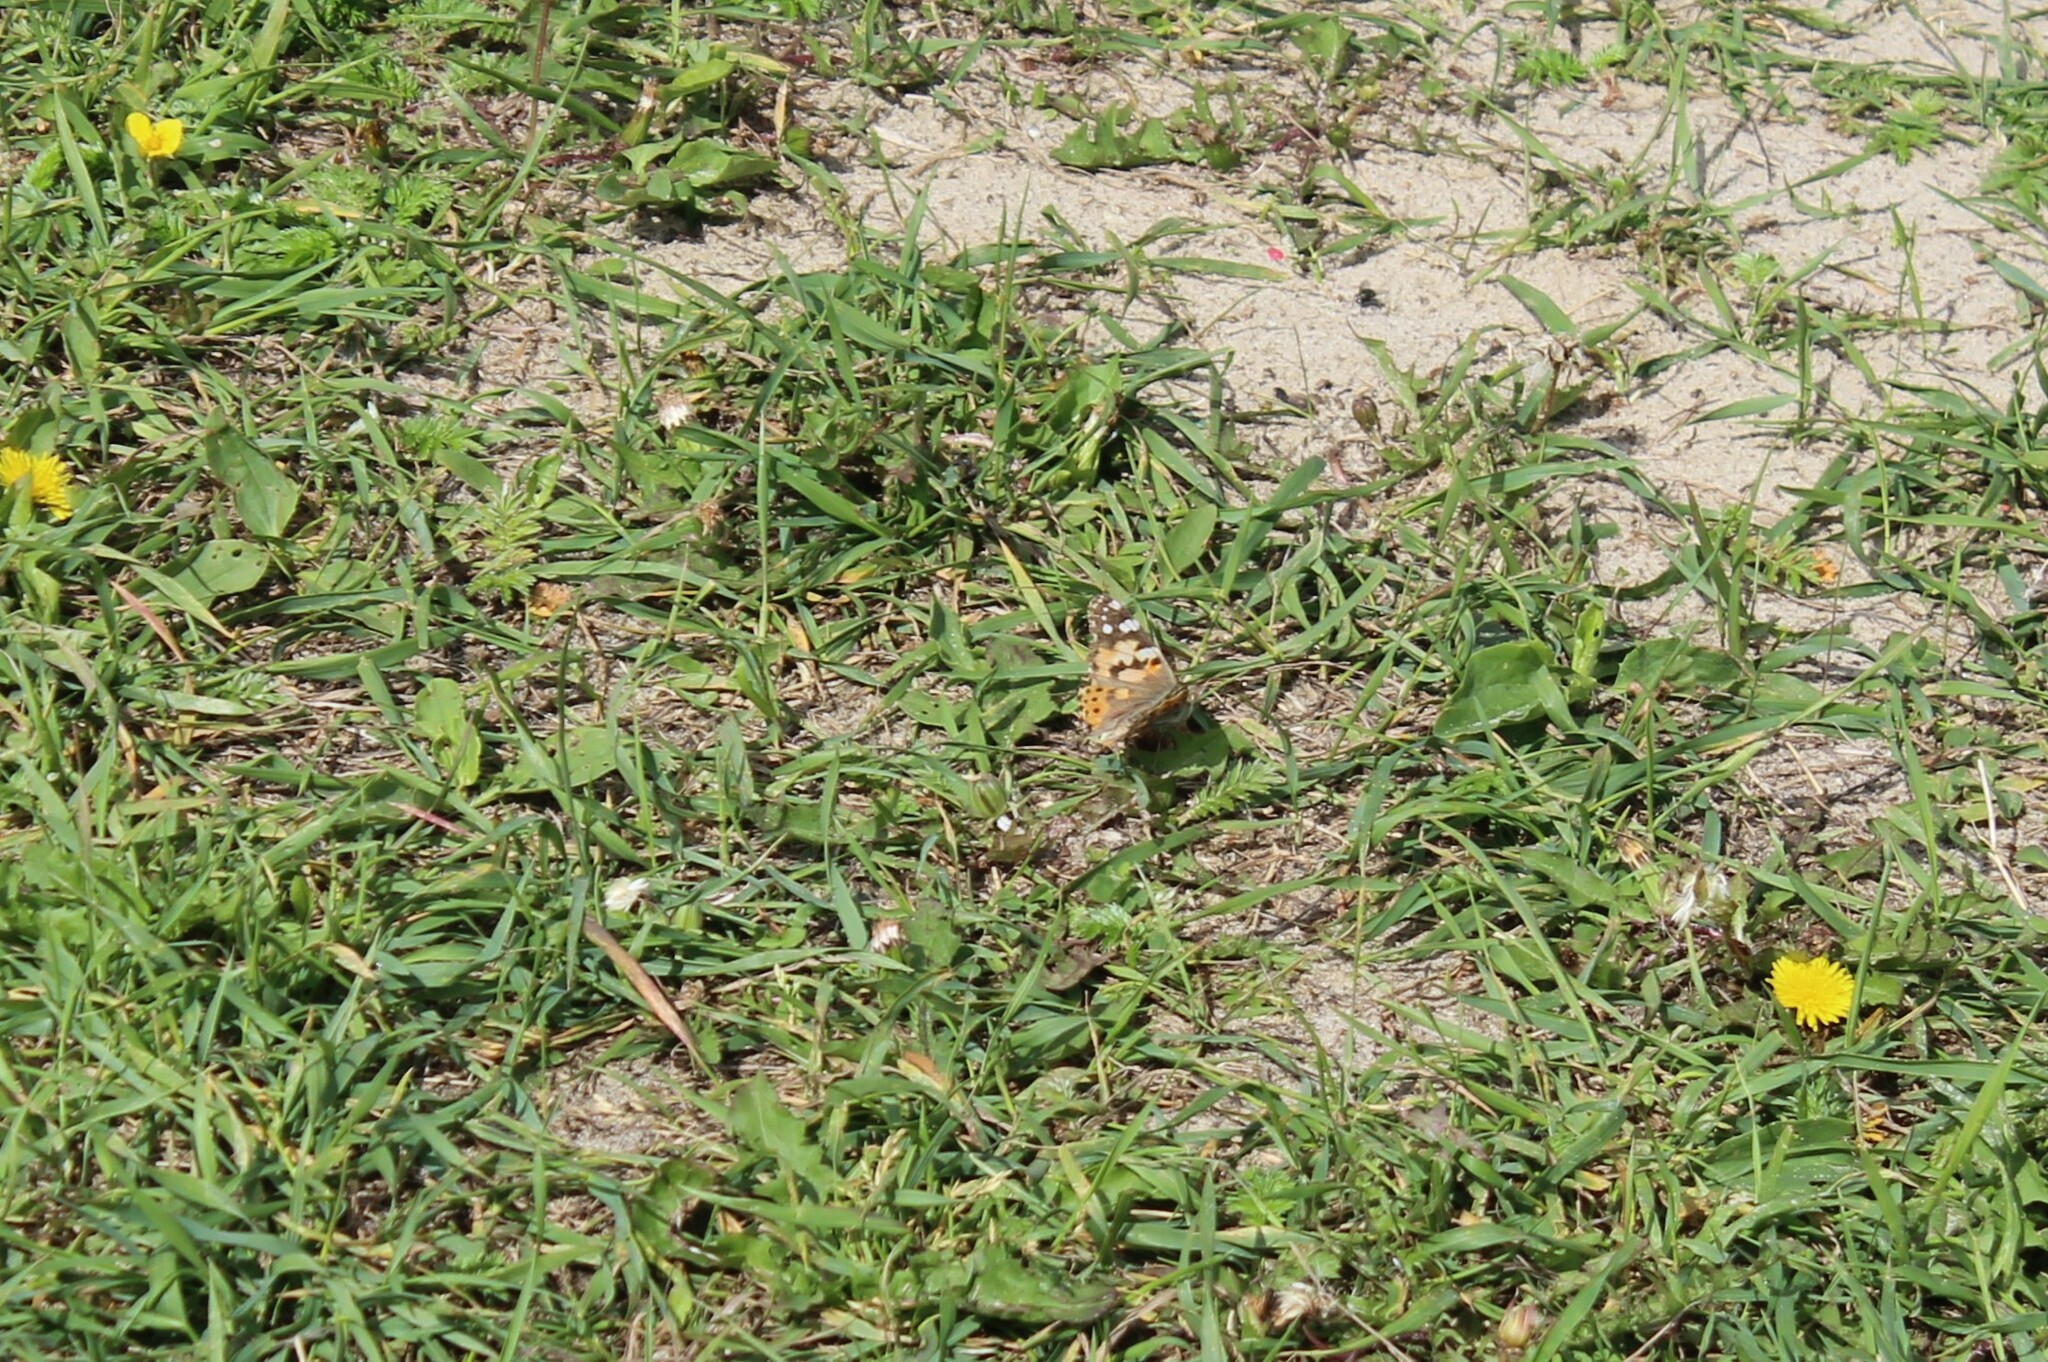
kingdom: Animalia
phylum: Arthropoda
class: Insecta
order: Lepidoptera
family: Nymphalidae
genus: Vanessa
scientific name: Vanessa cardui
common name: Painted lady
